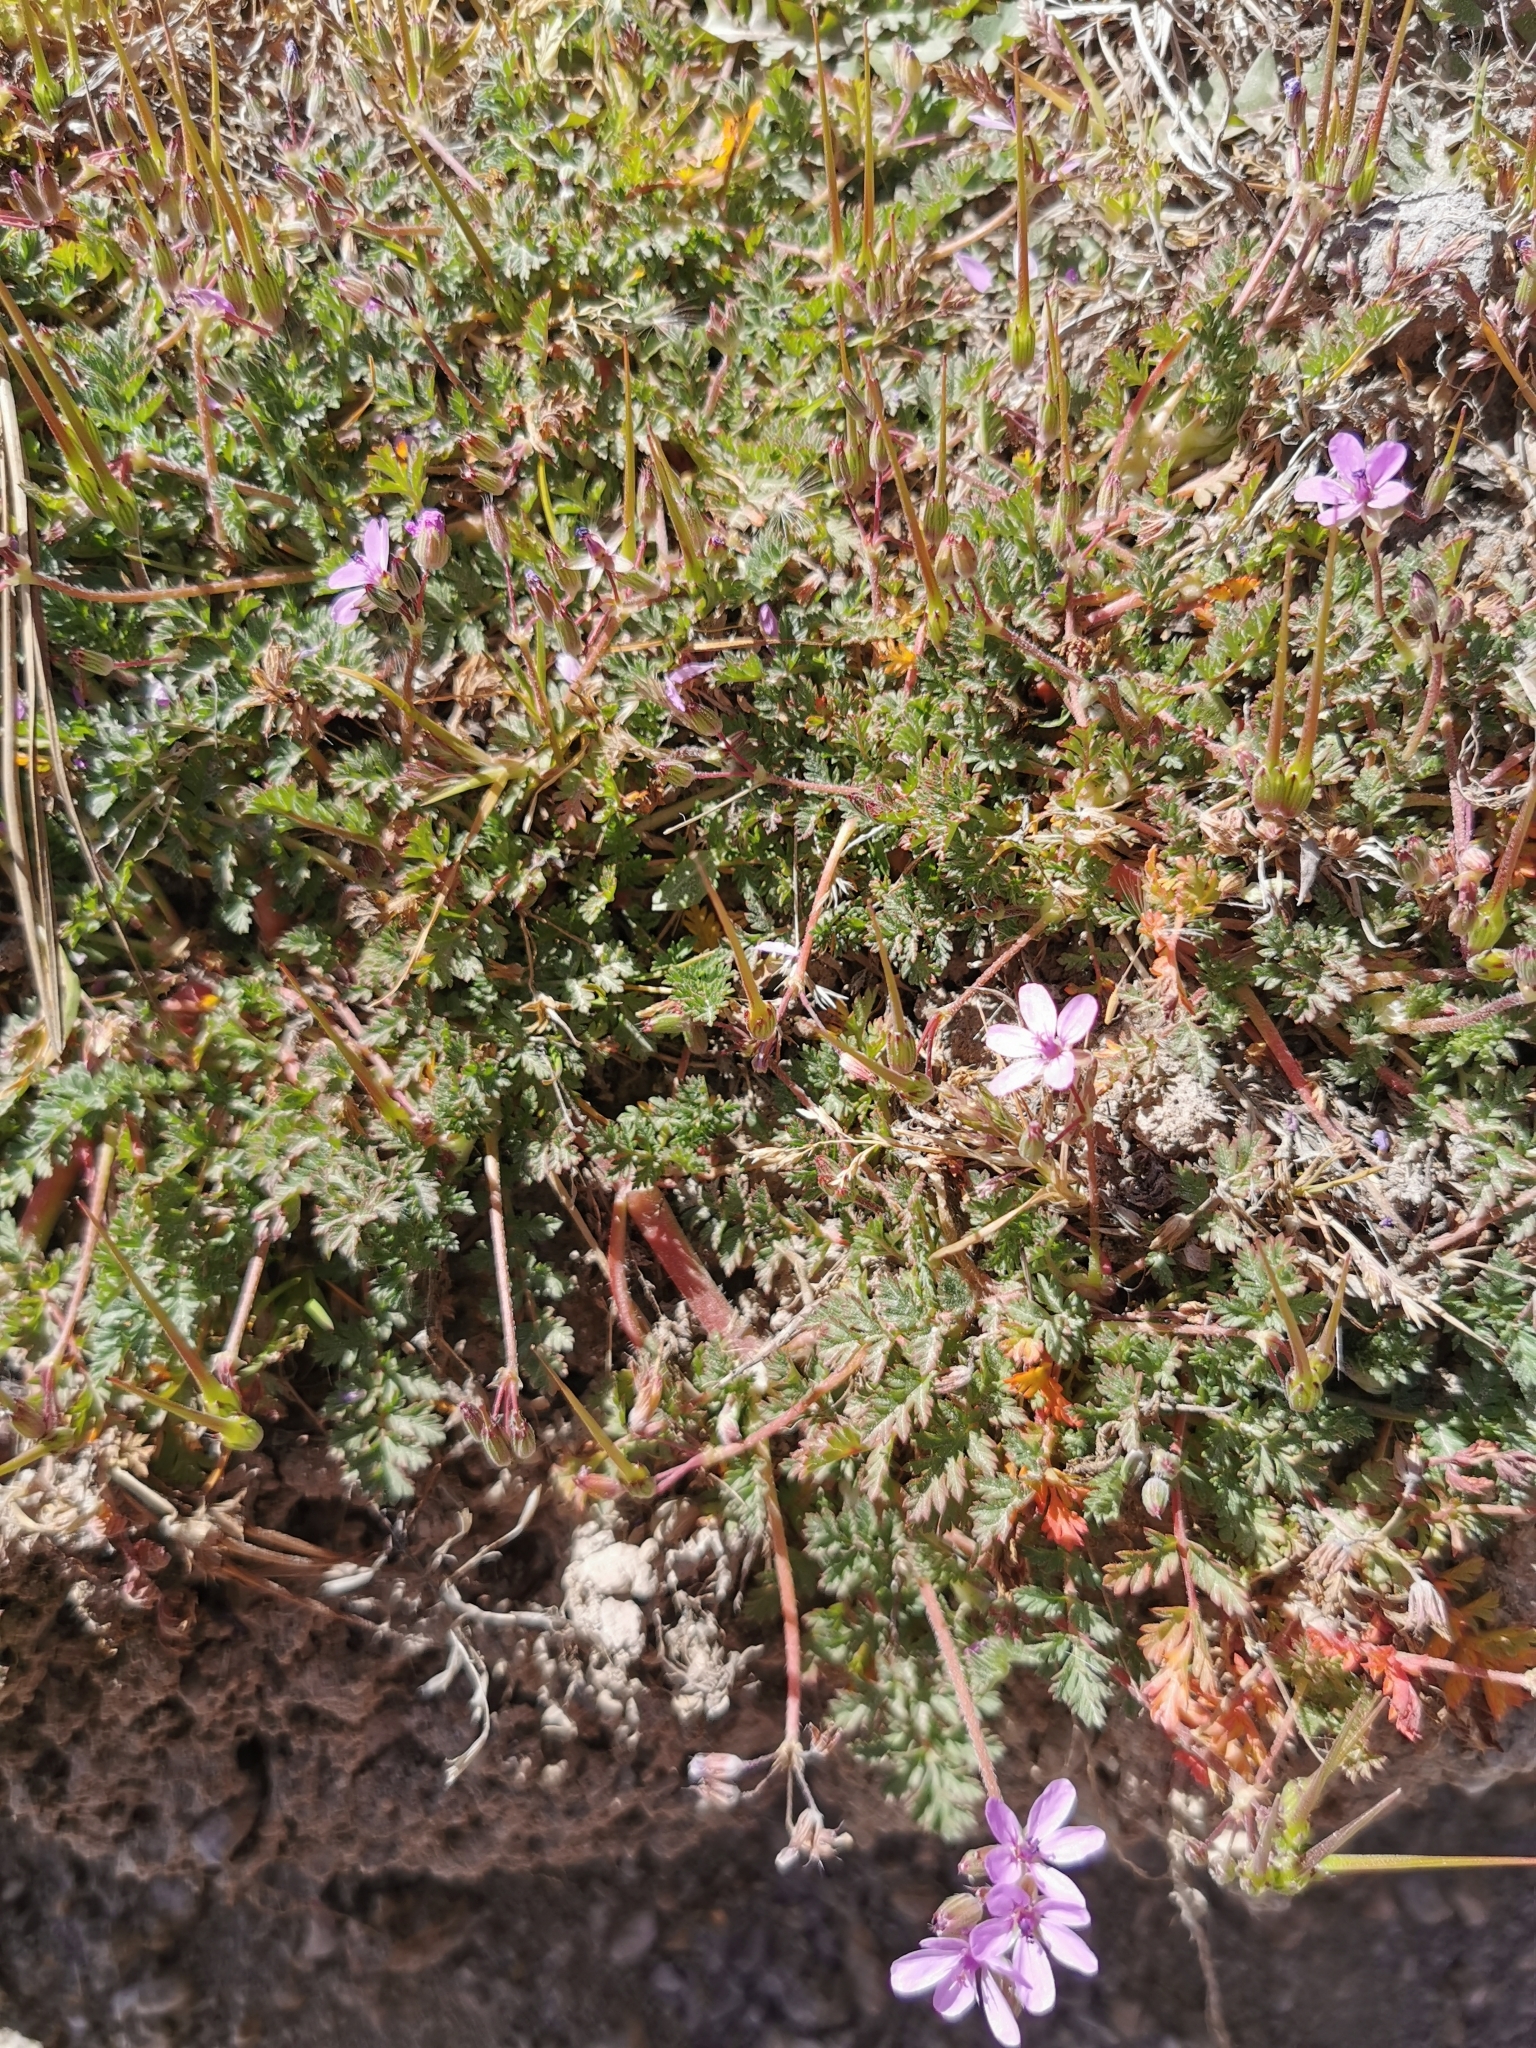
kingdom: Plantae
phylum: Tracheophyta
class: Magnoliopsida
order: Geraniales
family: Geraniaceae
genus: Erodium
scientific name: Erodium cicutarium
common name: Common stork's-bill
